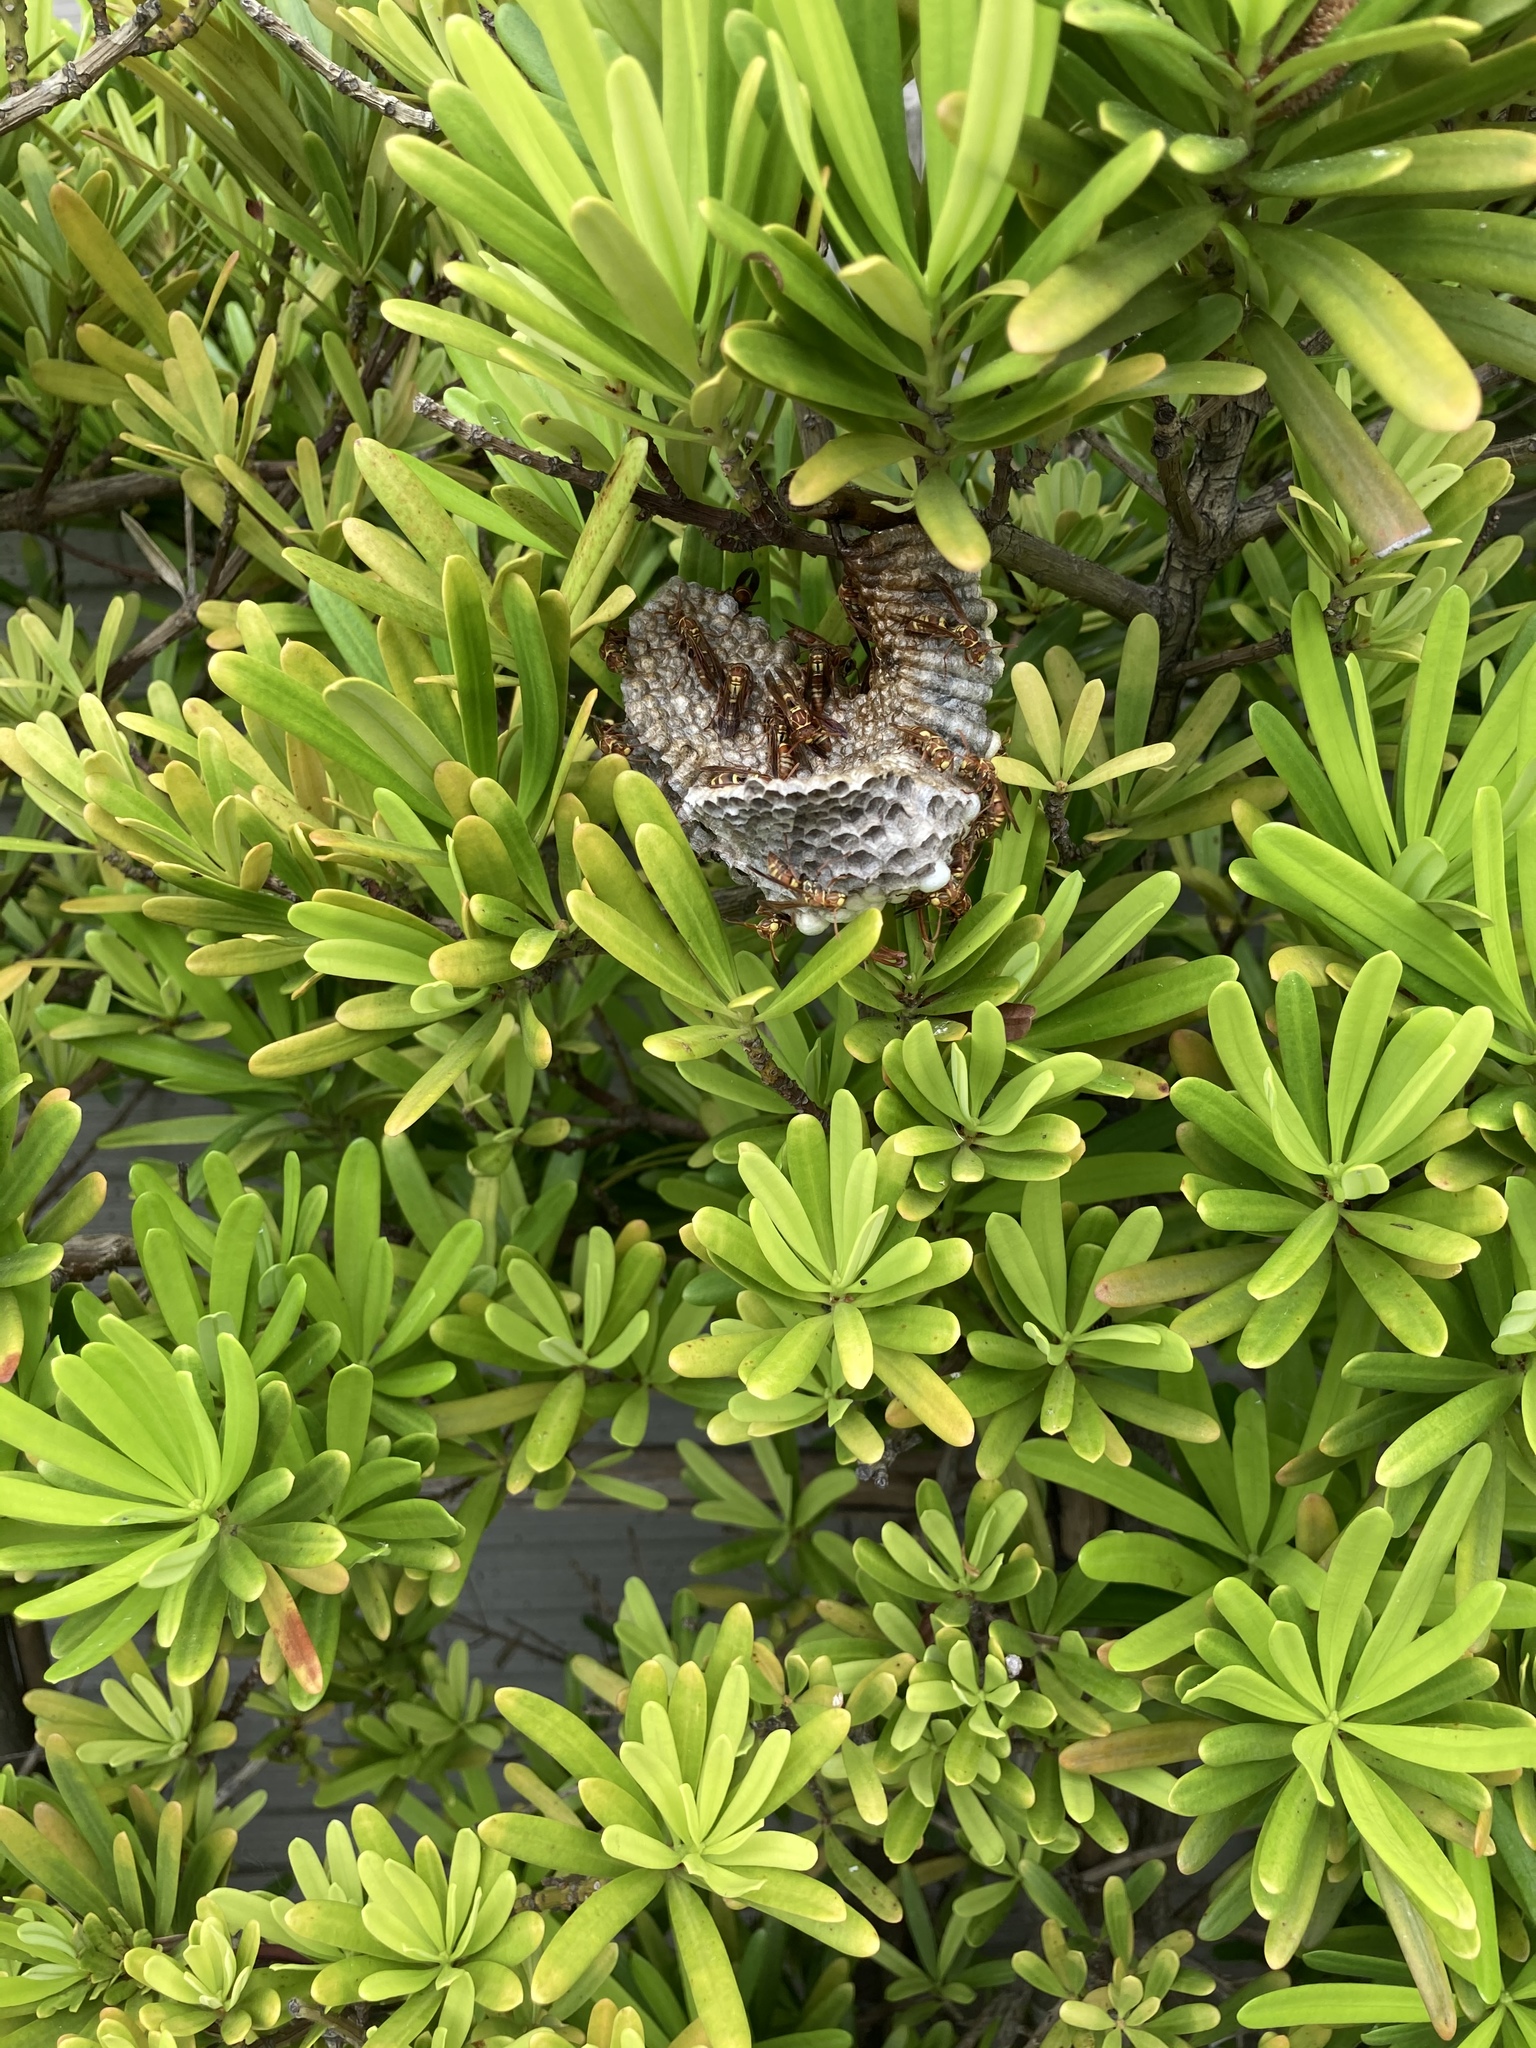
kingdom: Animalia
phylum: Arthropoda
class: Insecta
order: Hymenoptera
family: Eumenidae
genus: Polistes
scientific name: Polistes shirakii
